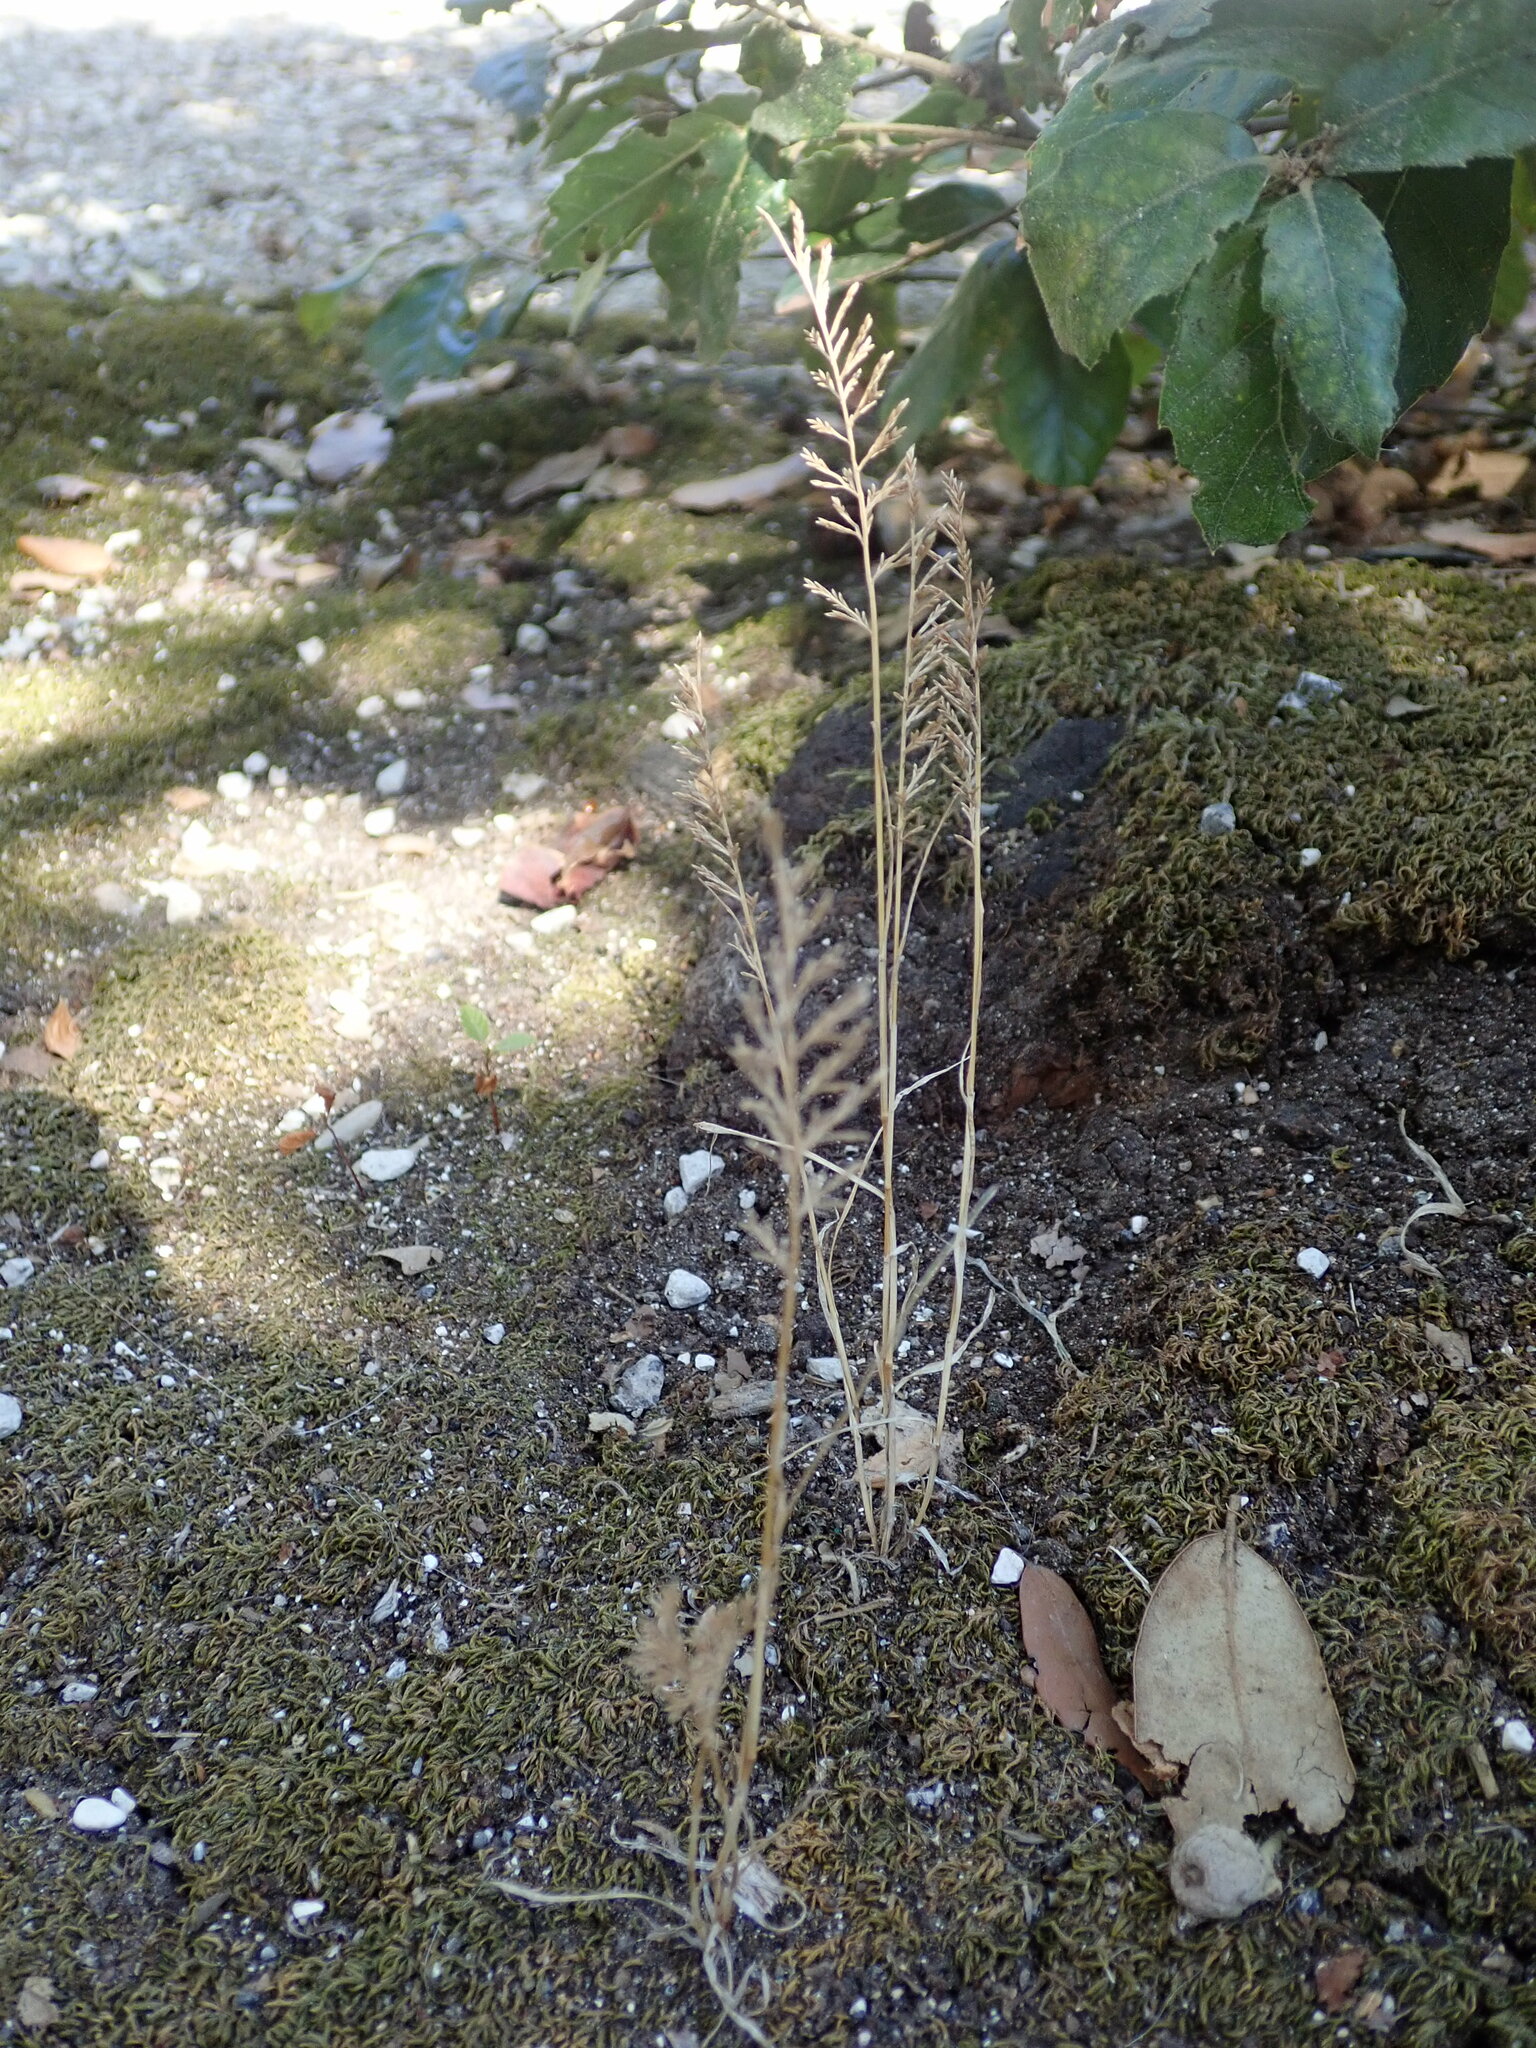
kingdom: Plantae
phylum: Tracheophyta
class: Liliopsida
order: Poales
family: Poaceae
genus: Catapodium
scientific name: Catapodium rigidum
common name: Fern-grass
